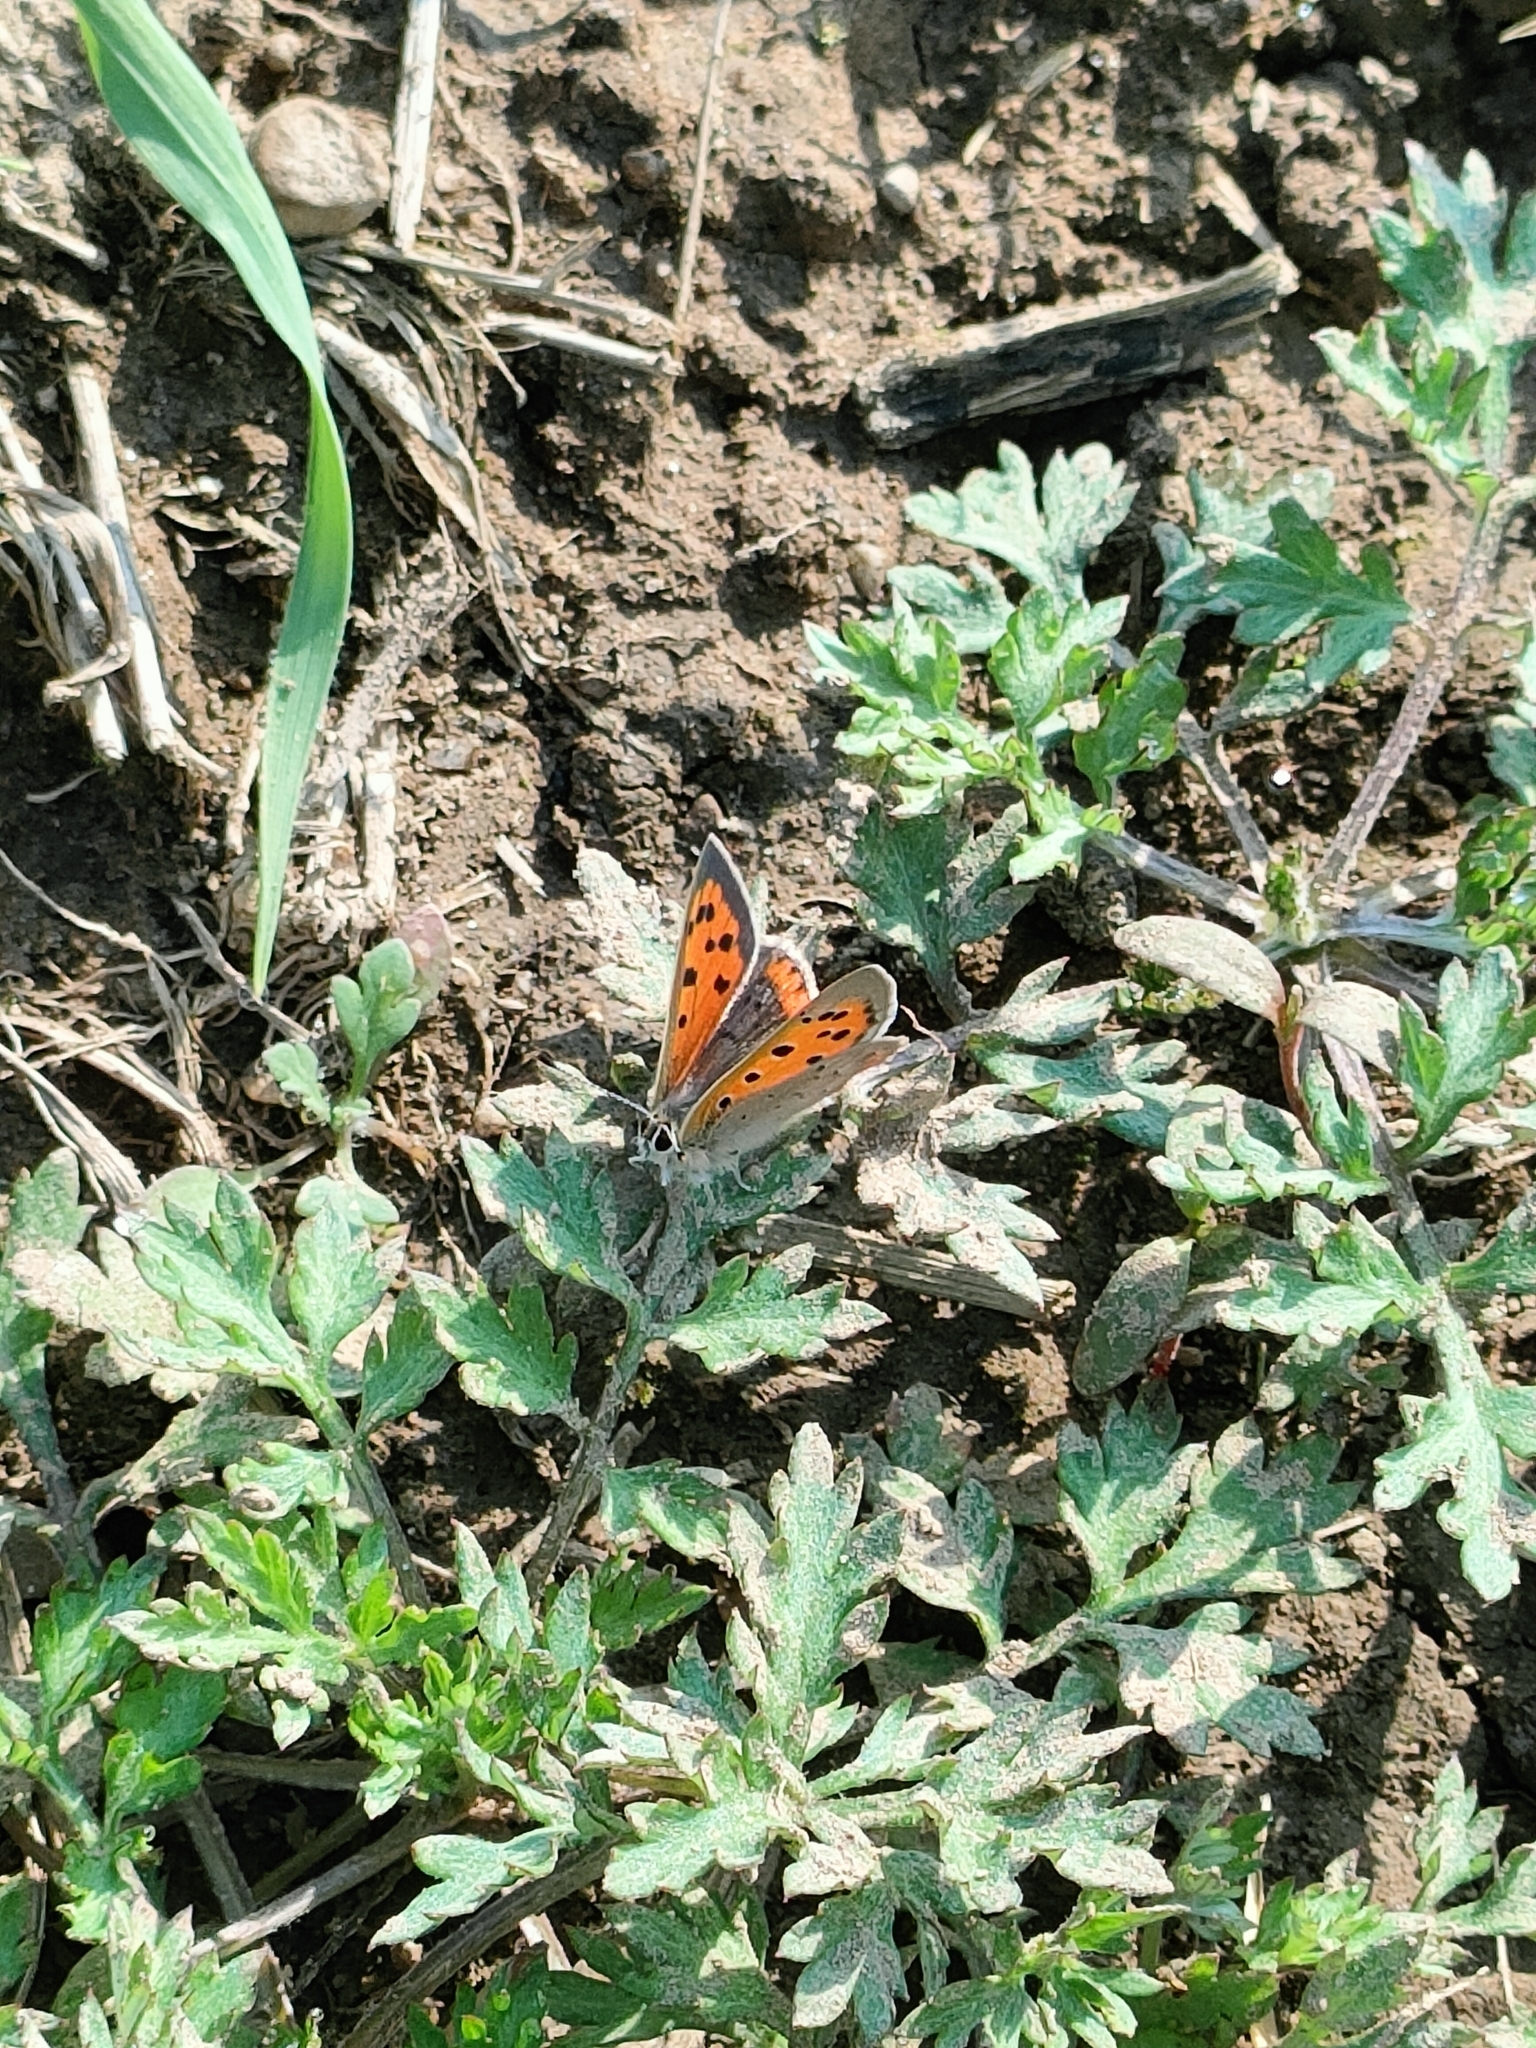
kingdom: Animalia
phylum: Arthropoda
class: Insecta
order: Lepidoptera
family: Lycaenidae
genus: Lycaena
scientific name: Lycaena phlaeas
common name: Small copper
